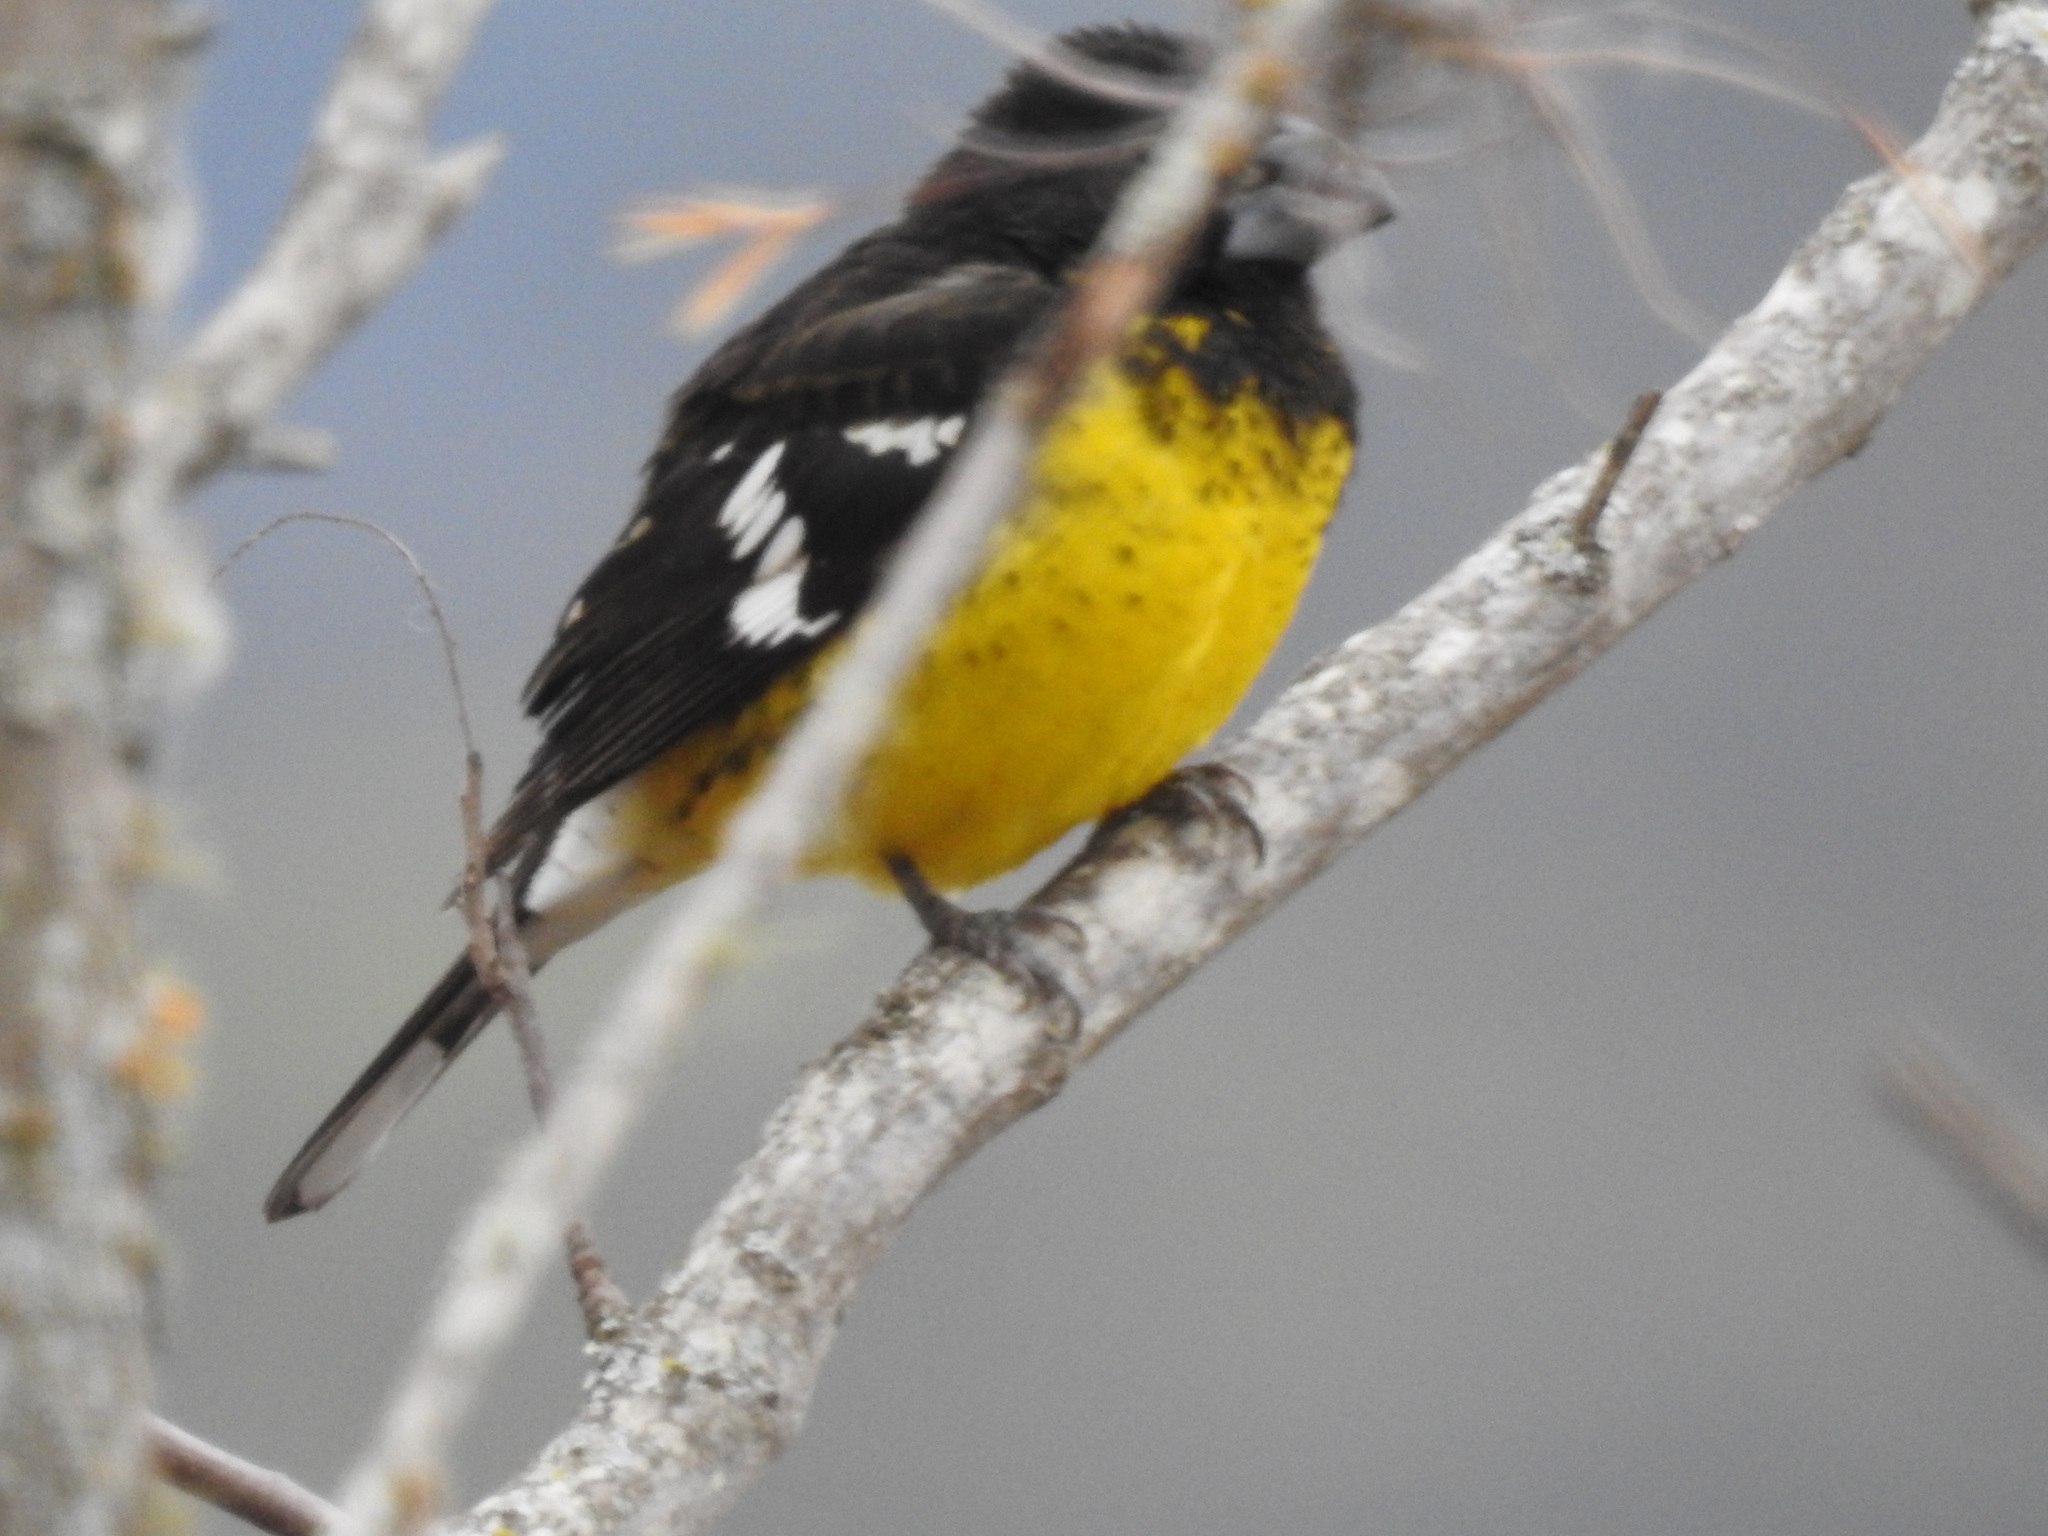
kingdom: Animalia
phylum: Chordata
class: Aves
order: Passeriformes
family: Cardinalidae
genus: Pheucticus
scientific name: Pheucticus aureoventris
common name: Black-backed grosbeak
